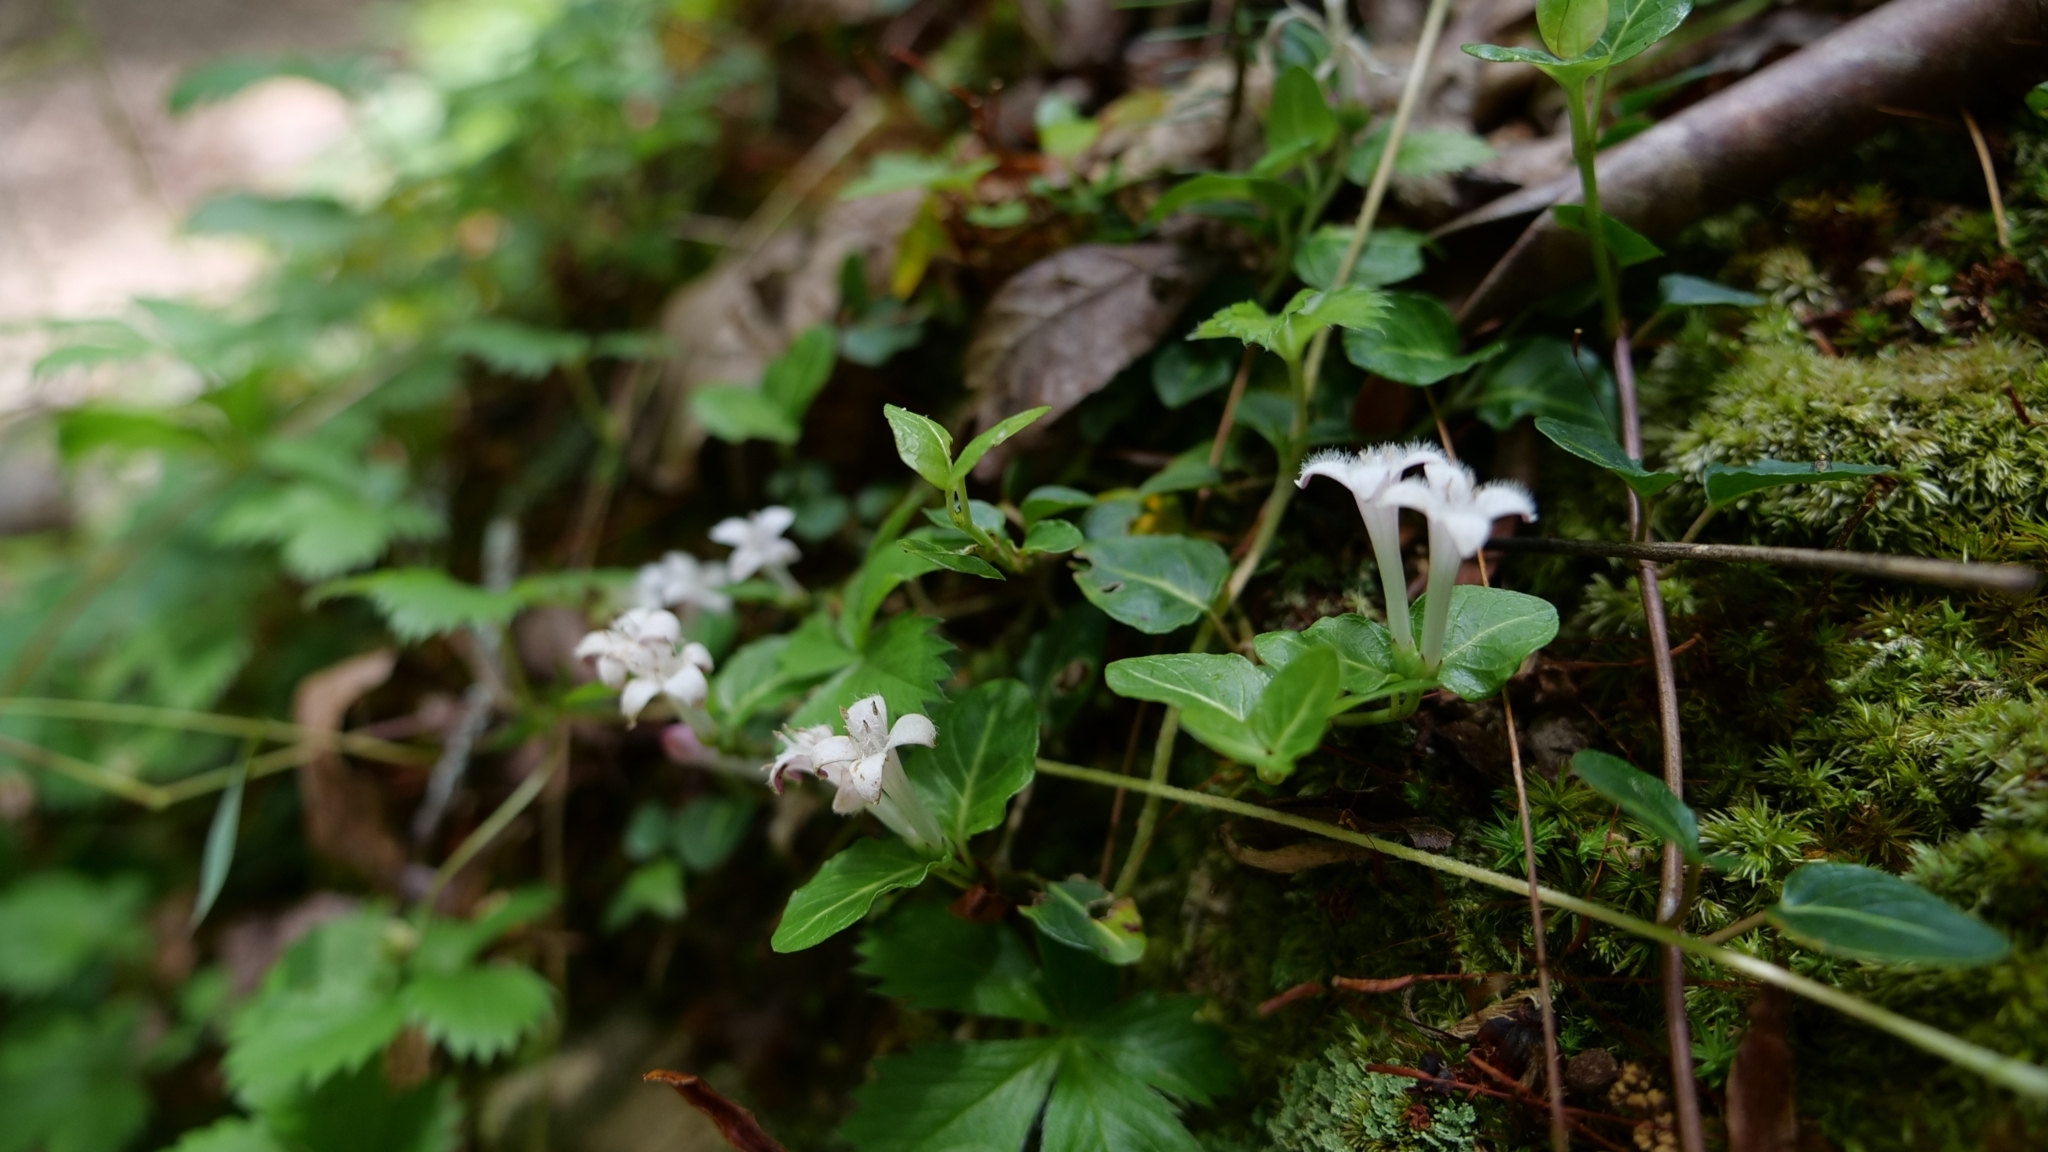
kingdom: Plantae
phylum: Tracheophyta
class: Magnoliopsida
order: Gentianales
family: Rubiaceae
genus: Mitchella
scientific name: Mitchella repens
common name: Partridge-berry
